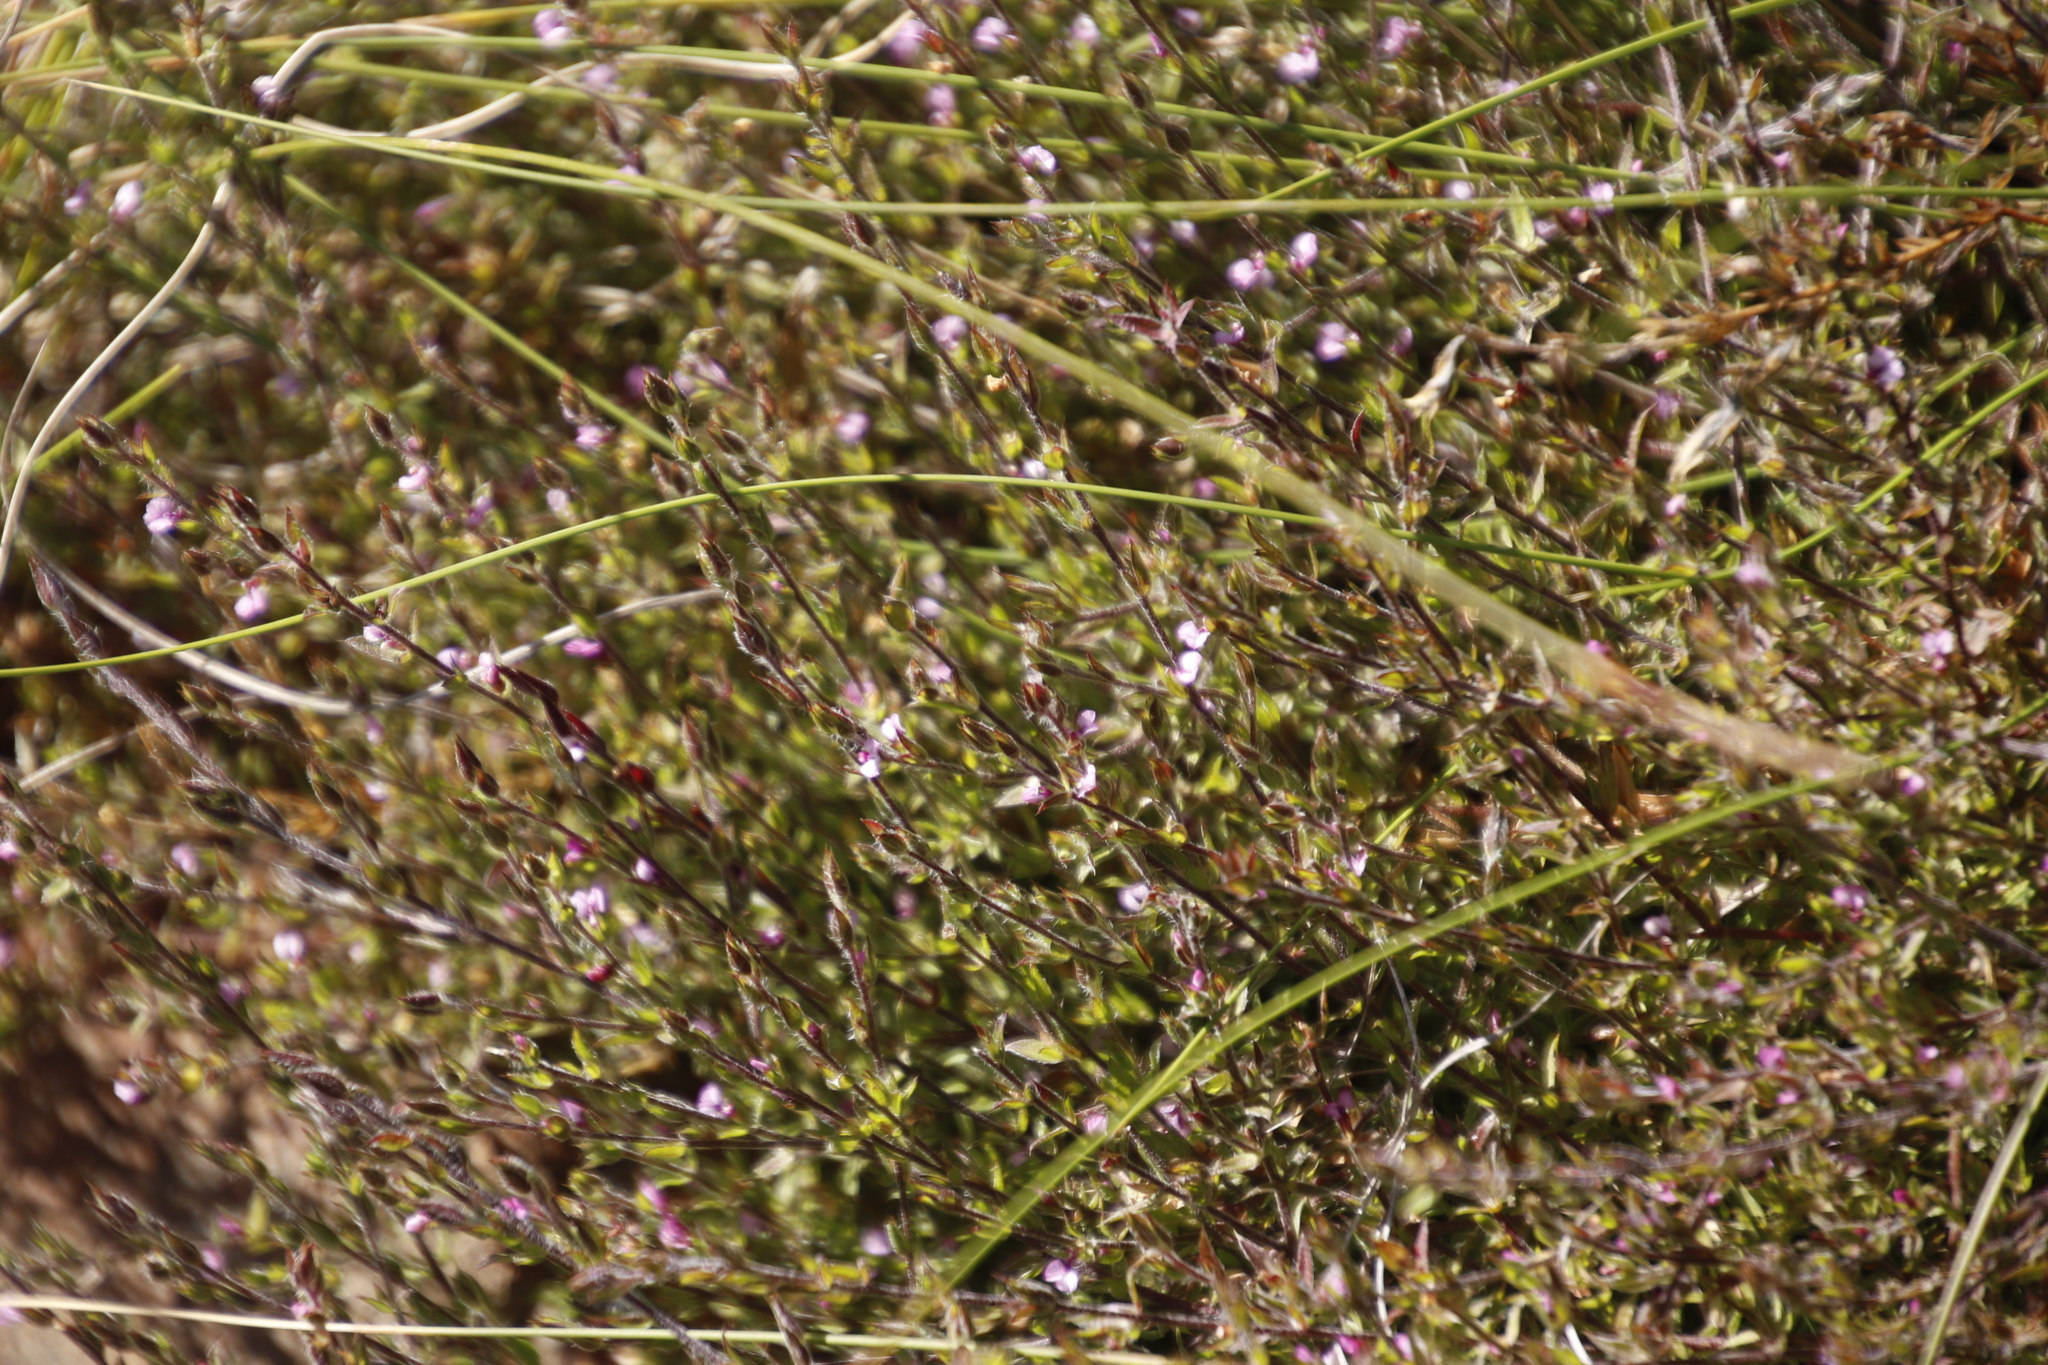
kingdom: Plantae
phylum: Tracheophyta
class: Magnoliopsida
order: Fabales
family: Polygalaceae
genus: Muraltia
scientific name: Muraltia stipulacea
